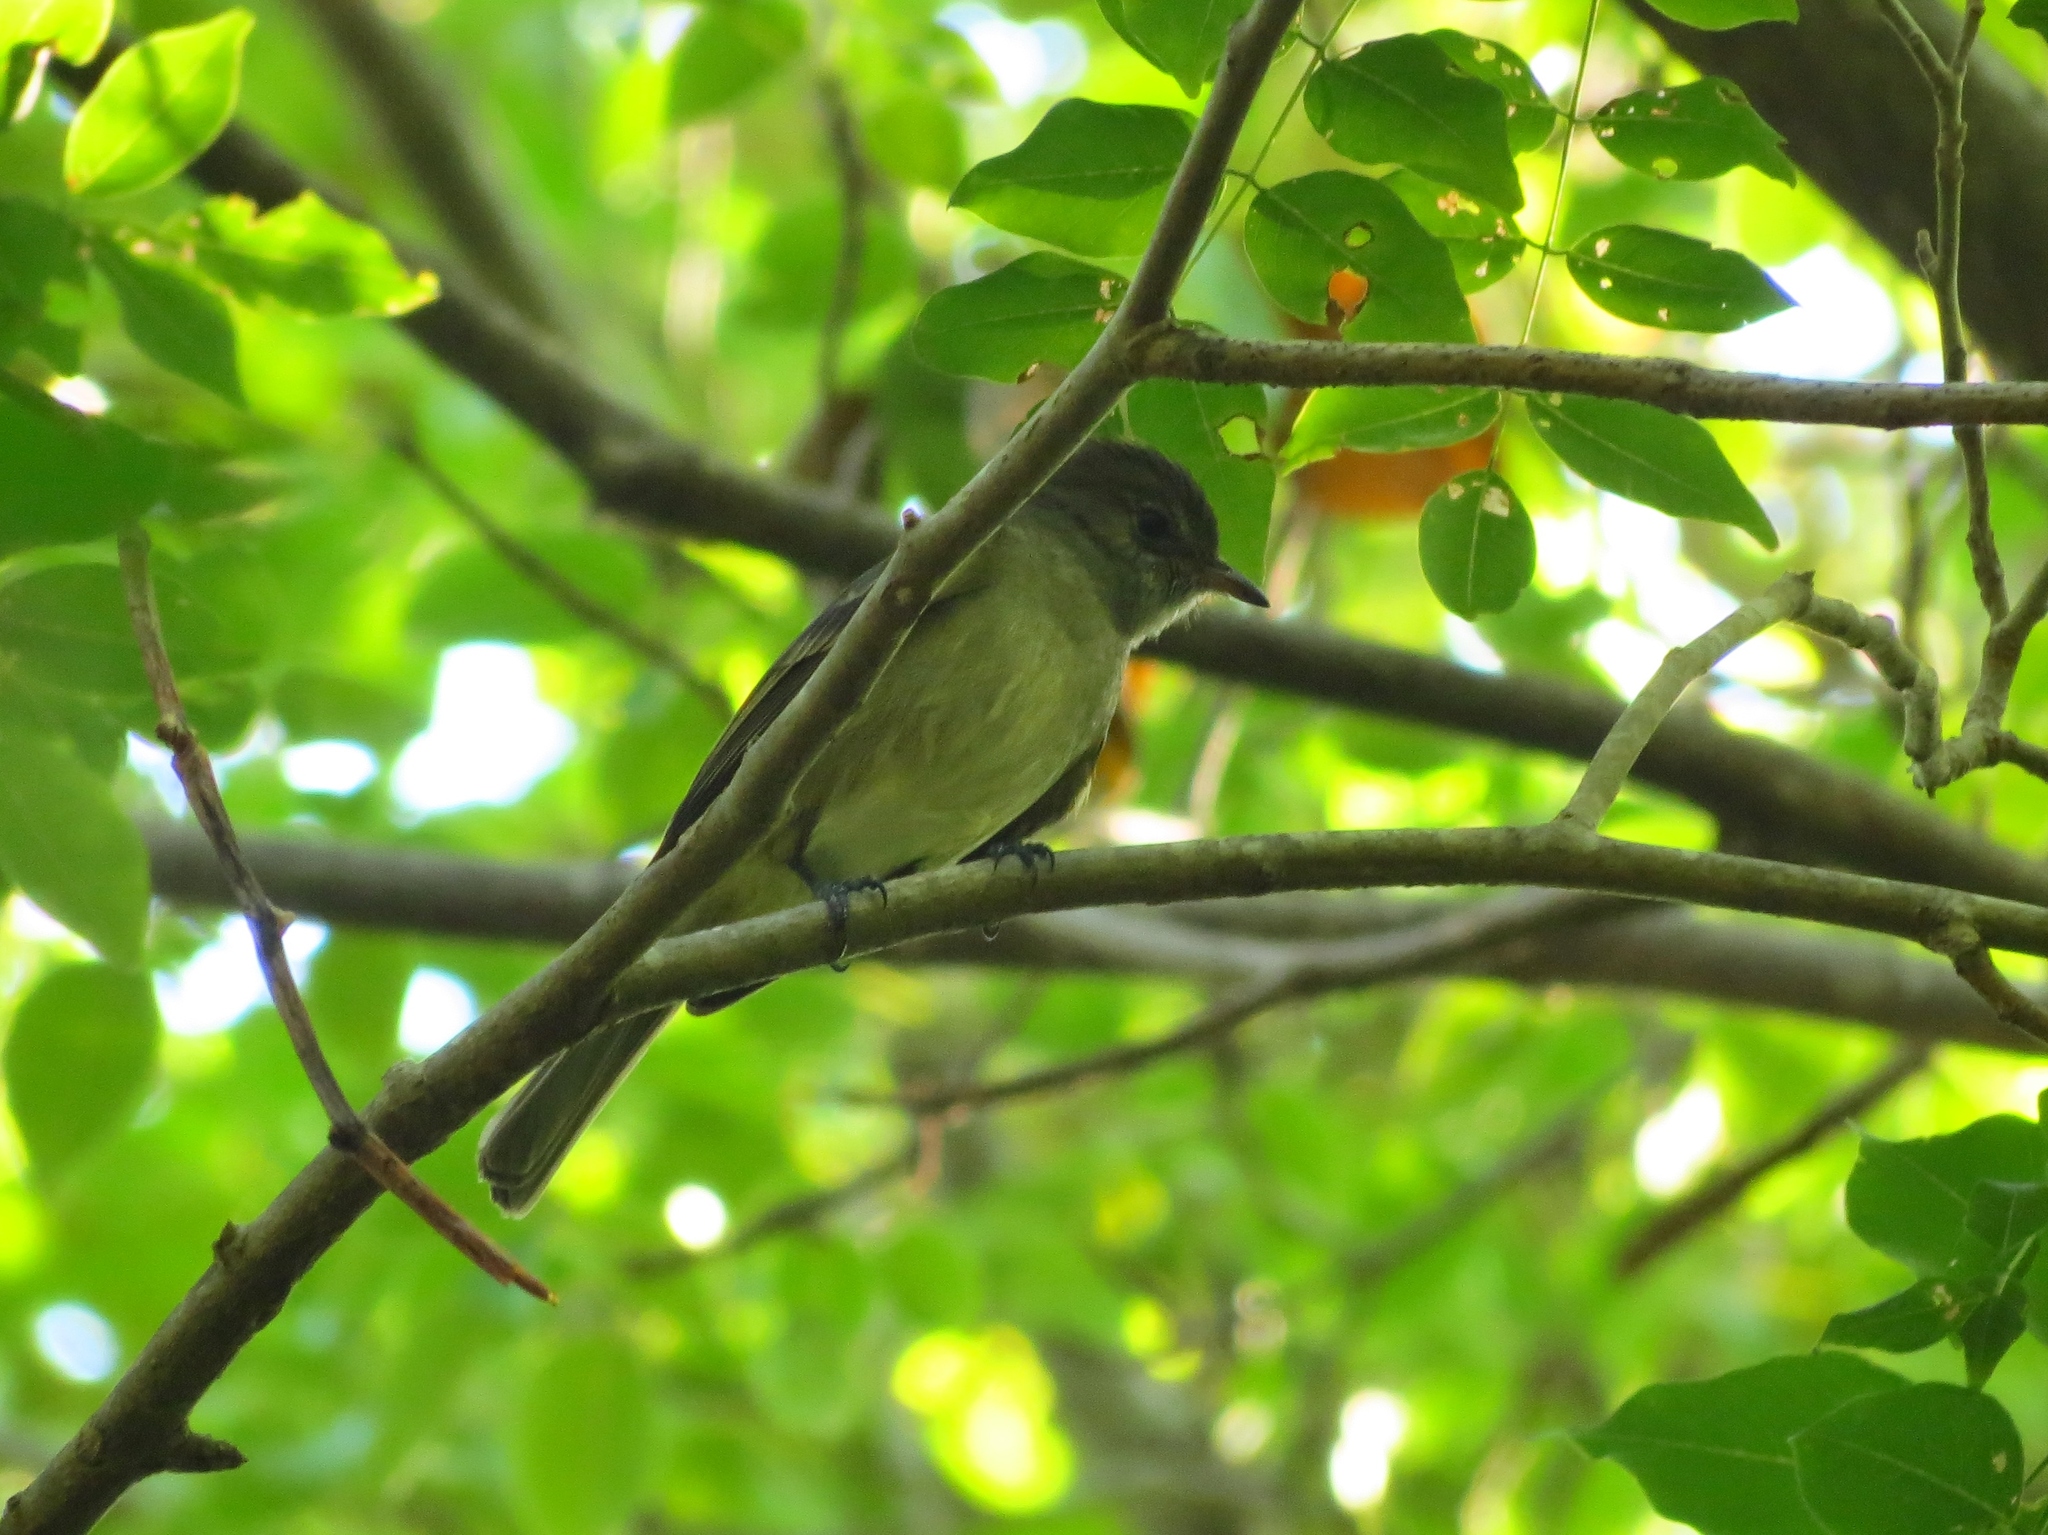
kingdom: Animalia
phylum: Chordata
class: Aves
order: Passeriformes
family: Tyrannidae
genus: Elaenia
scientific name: Elaenia martinica
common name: Caribbean elaenia
